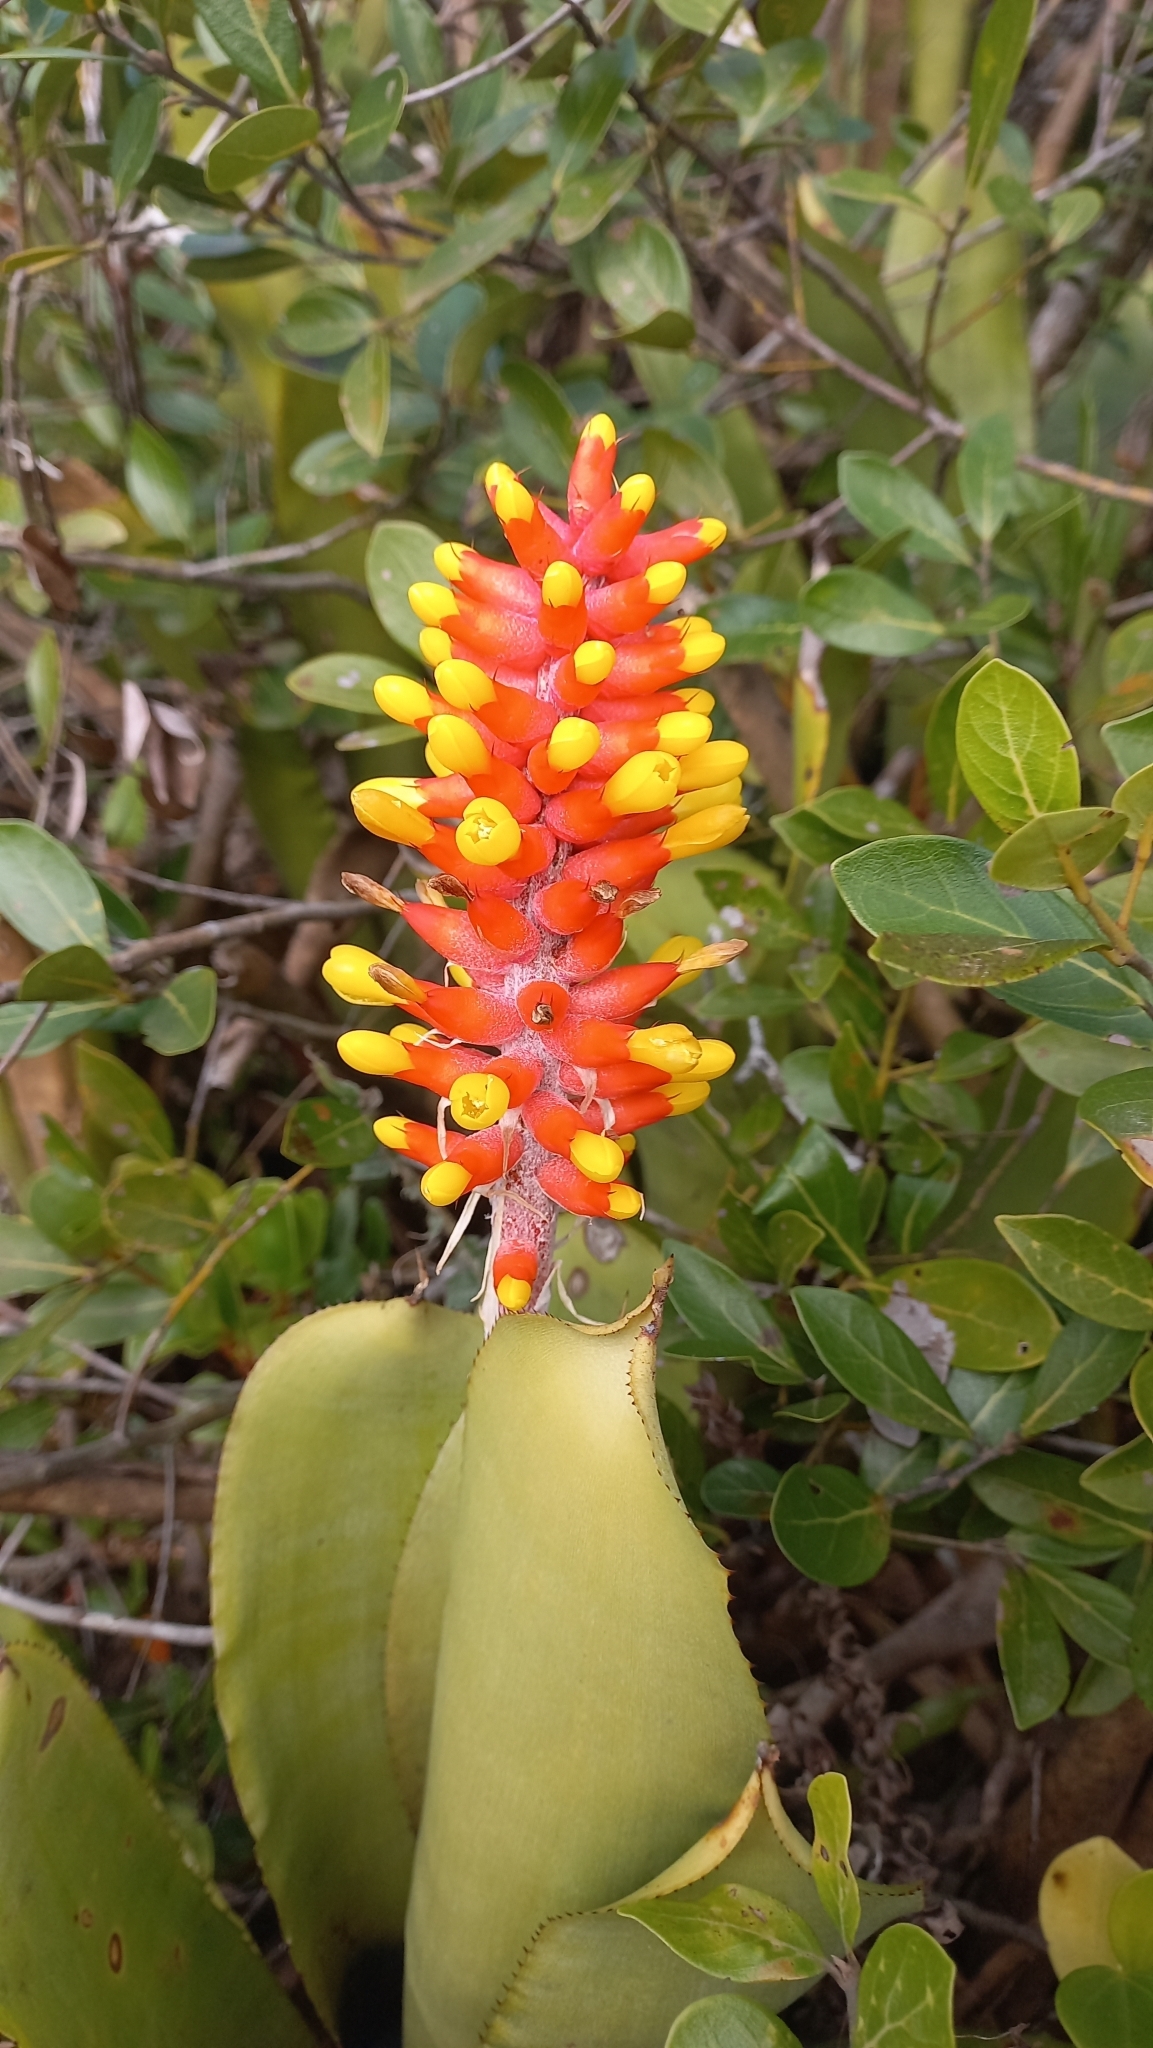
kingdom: Plantae
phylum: Tracheophyta
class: Liliopsida
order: Poales
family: Bromeliaceae
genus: Aechmea
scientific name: Aechmea kertesziae
